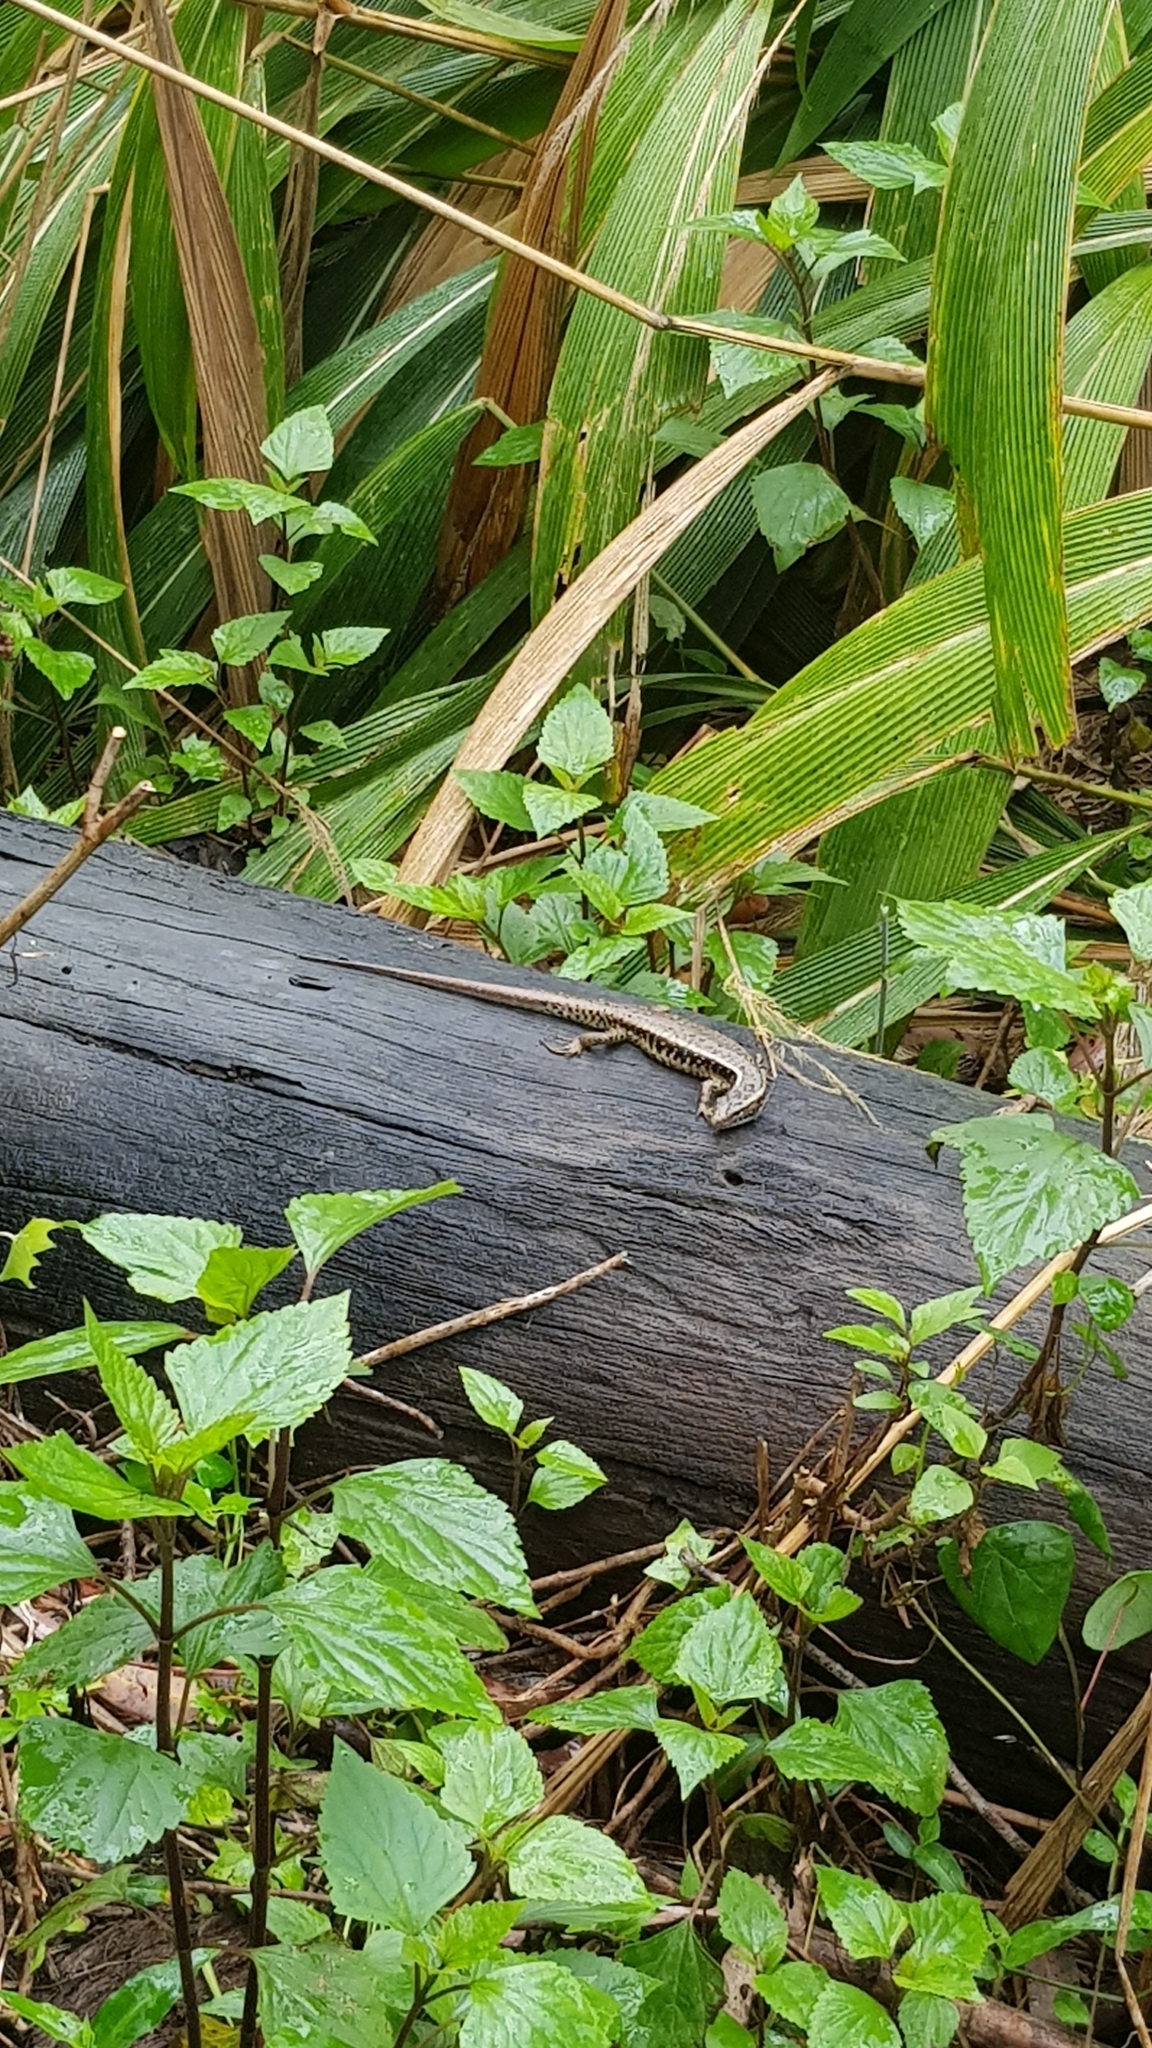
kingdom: Animalia
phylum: Chordata
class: Squamata
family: Scincidae
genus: Eulamprus
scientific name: Eulamprus quoyii
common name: Eastern water skink
